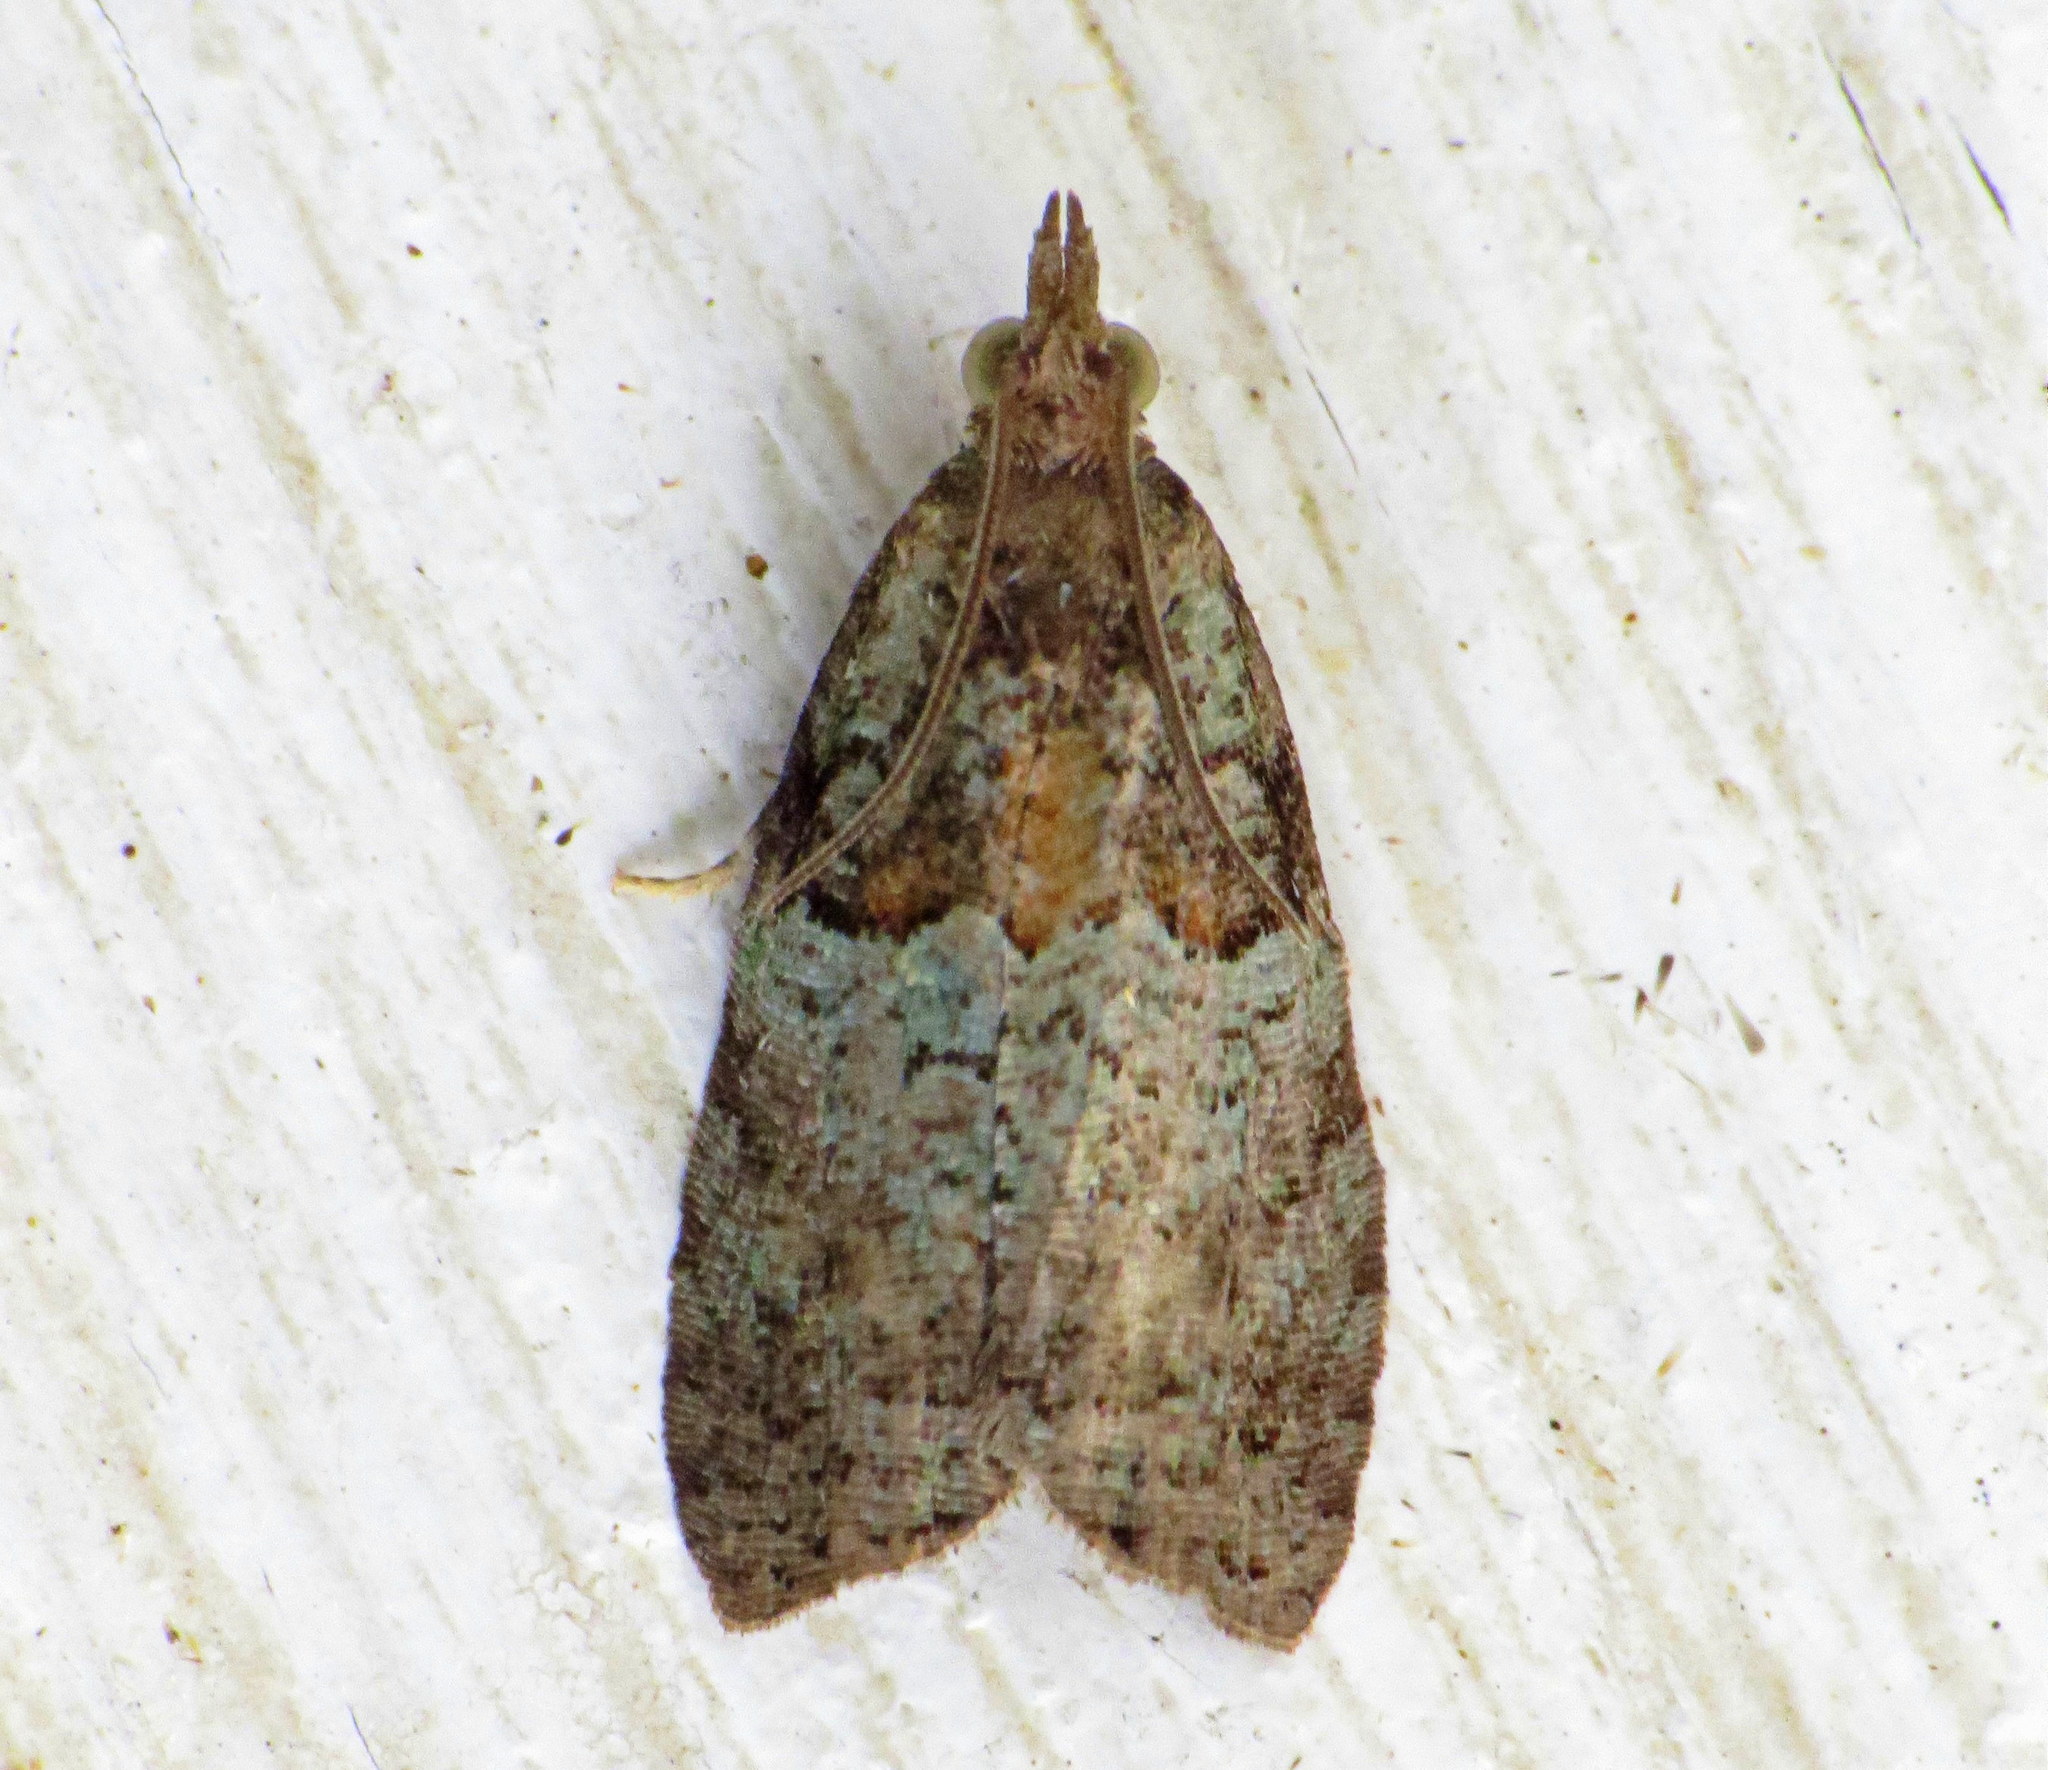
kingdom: Animalia
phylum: Arthropoda
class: Insecta
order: Lepidoptera
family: Tortricidae
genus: Epinotia
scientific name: Epinotia medioviridana
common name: Raspberry leaf-roller moth
